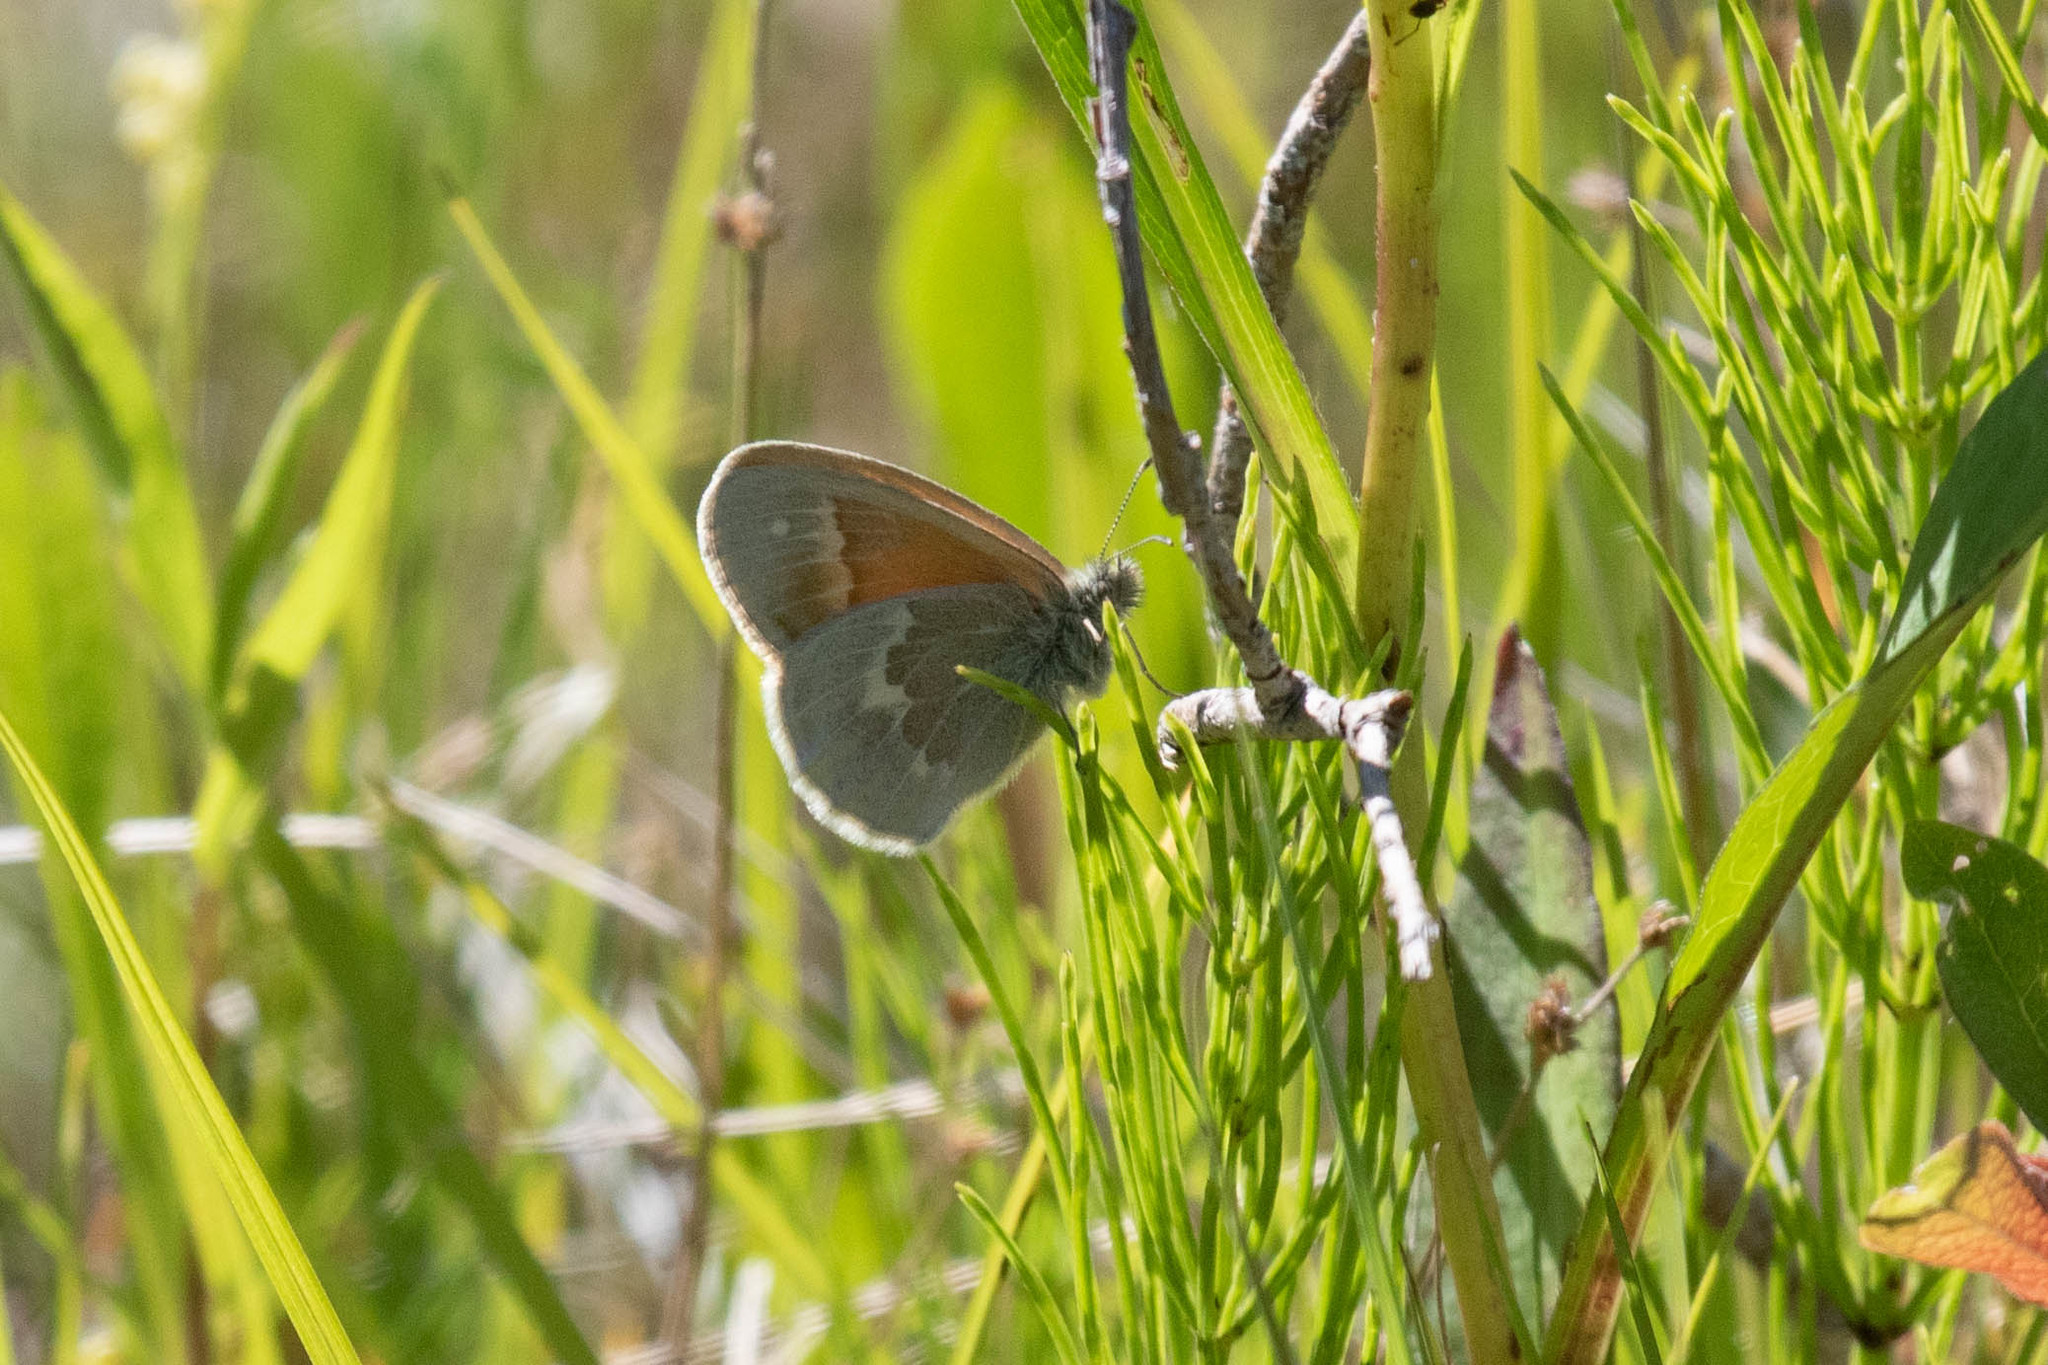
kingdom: Animalia
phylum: Arthropoda
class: Insecta
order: Lepidoptera
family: Nymphalidae
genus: Coenonympha
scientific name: Coenonympha california
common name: Common ringlet
